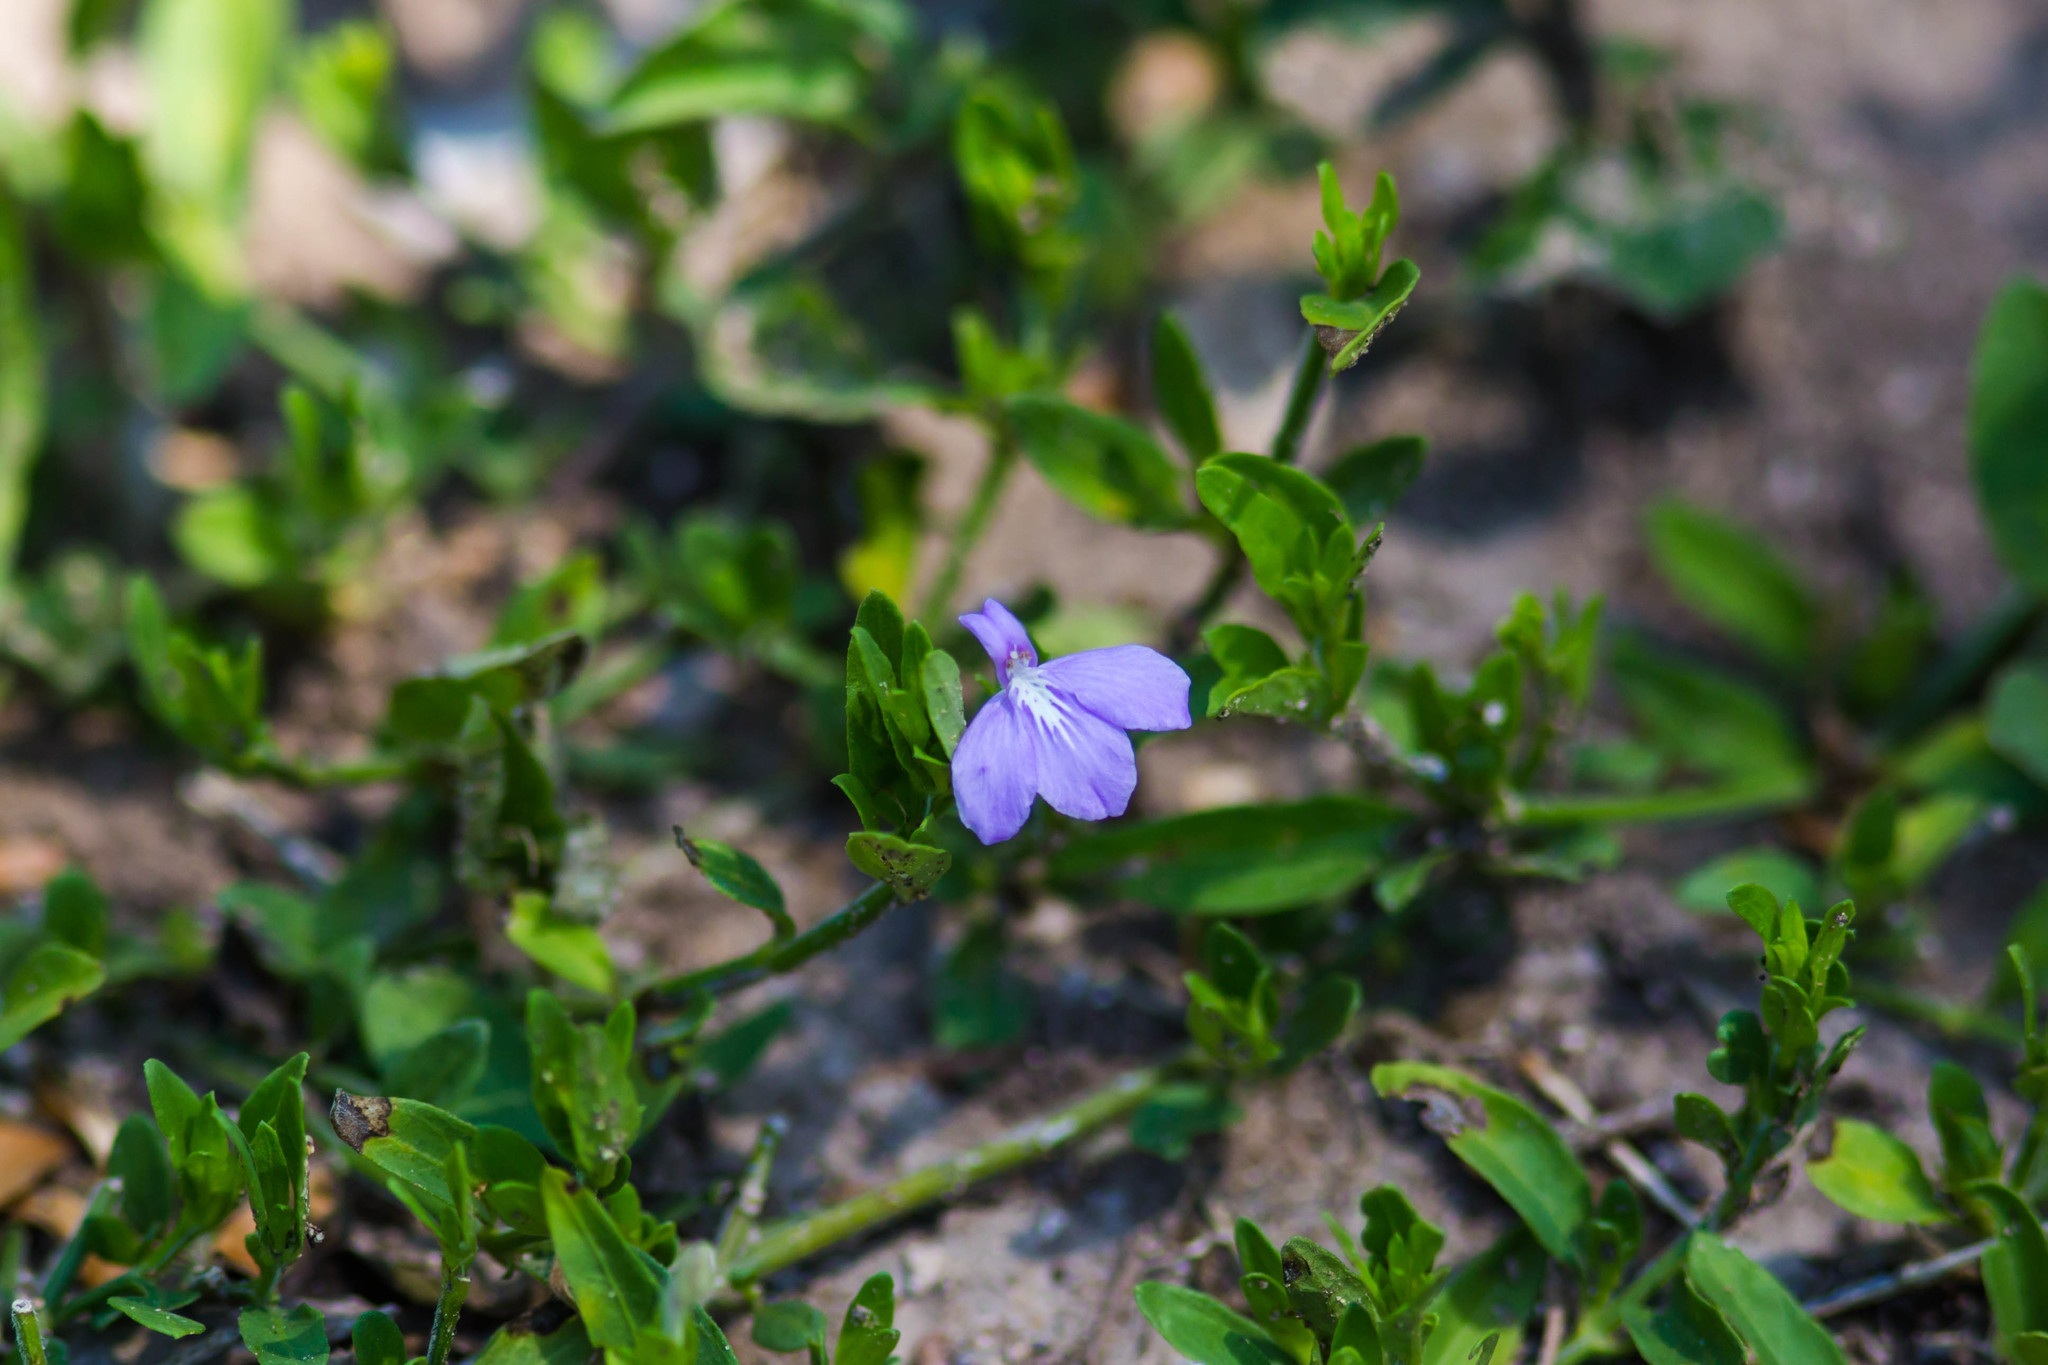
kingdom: Plantae
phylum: Tracheophyta
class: Magnoliopsida
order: Lamiales
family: Acanthaceae
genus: Justicia
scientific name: Justicia pilosella
